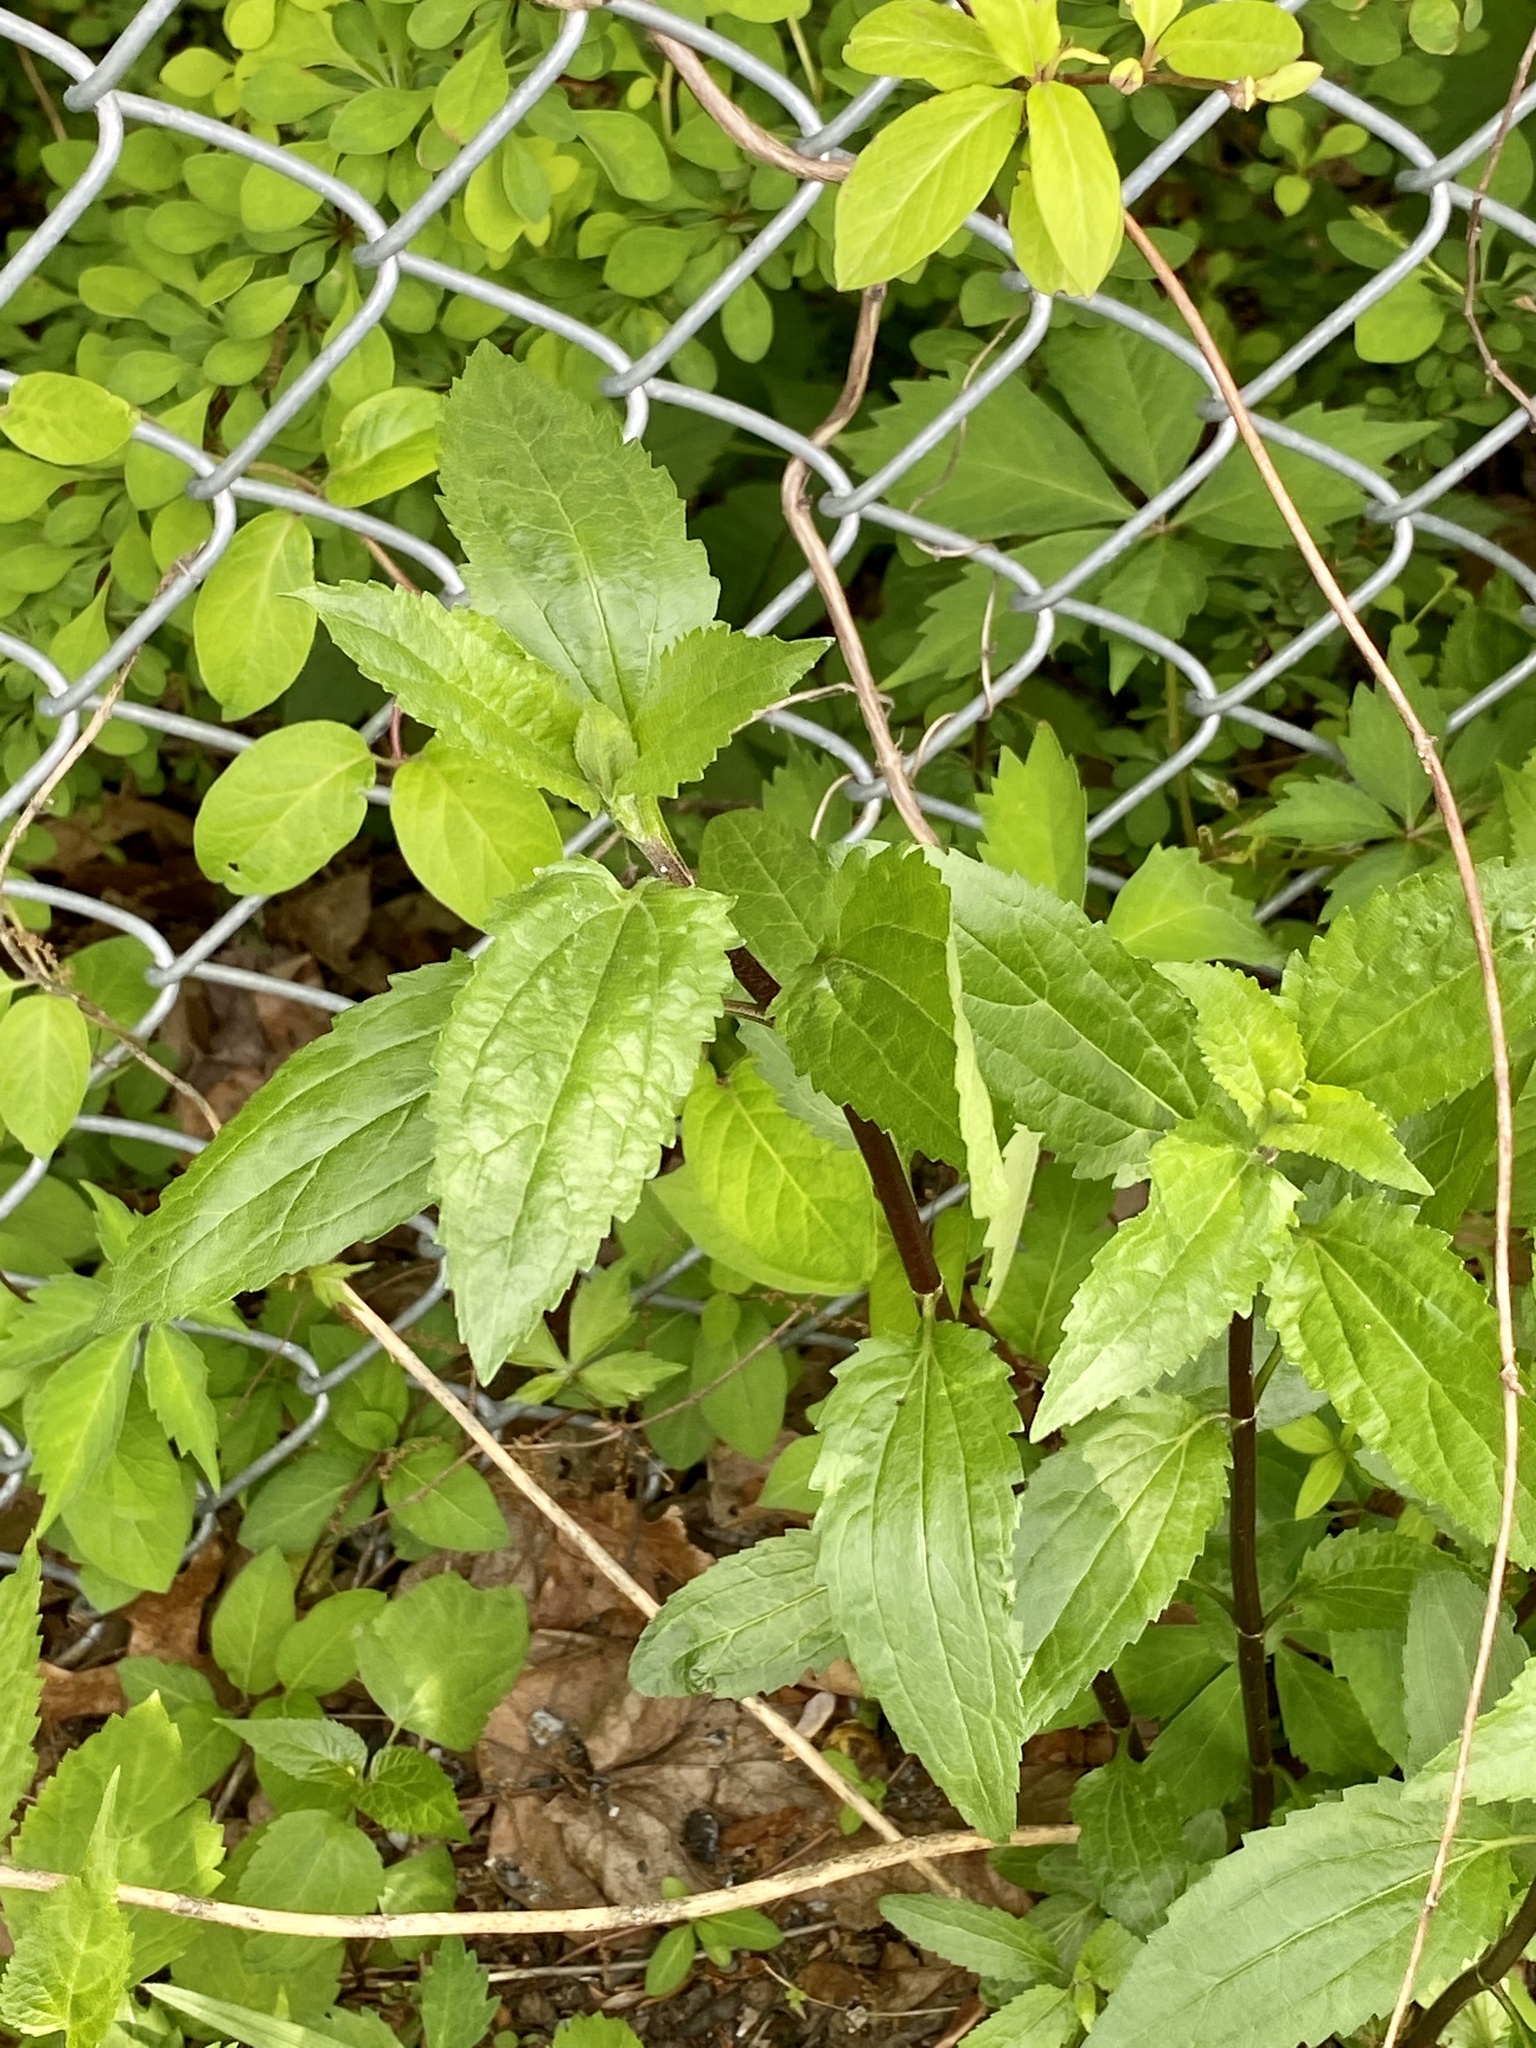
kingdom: Plantae
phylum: Tracheophyta
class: Magnoliopsida
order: Asterales
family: Asteraceae
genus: Eupatorium
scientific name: Eupatorium serotinum
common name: Late boneset
